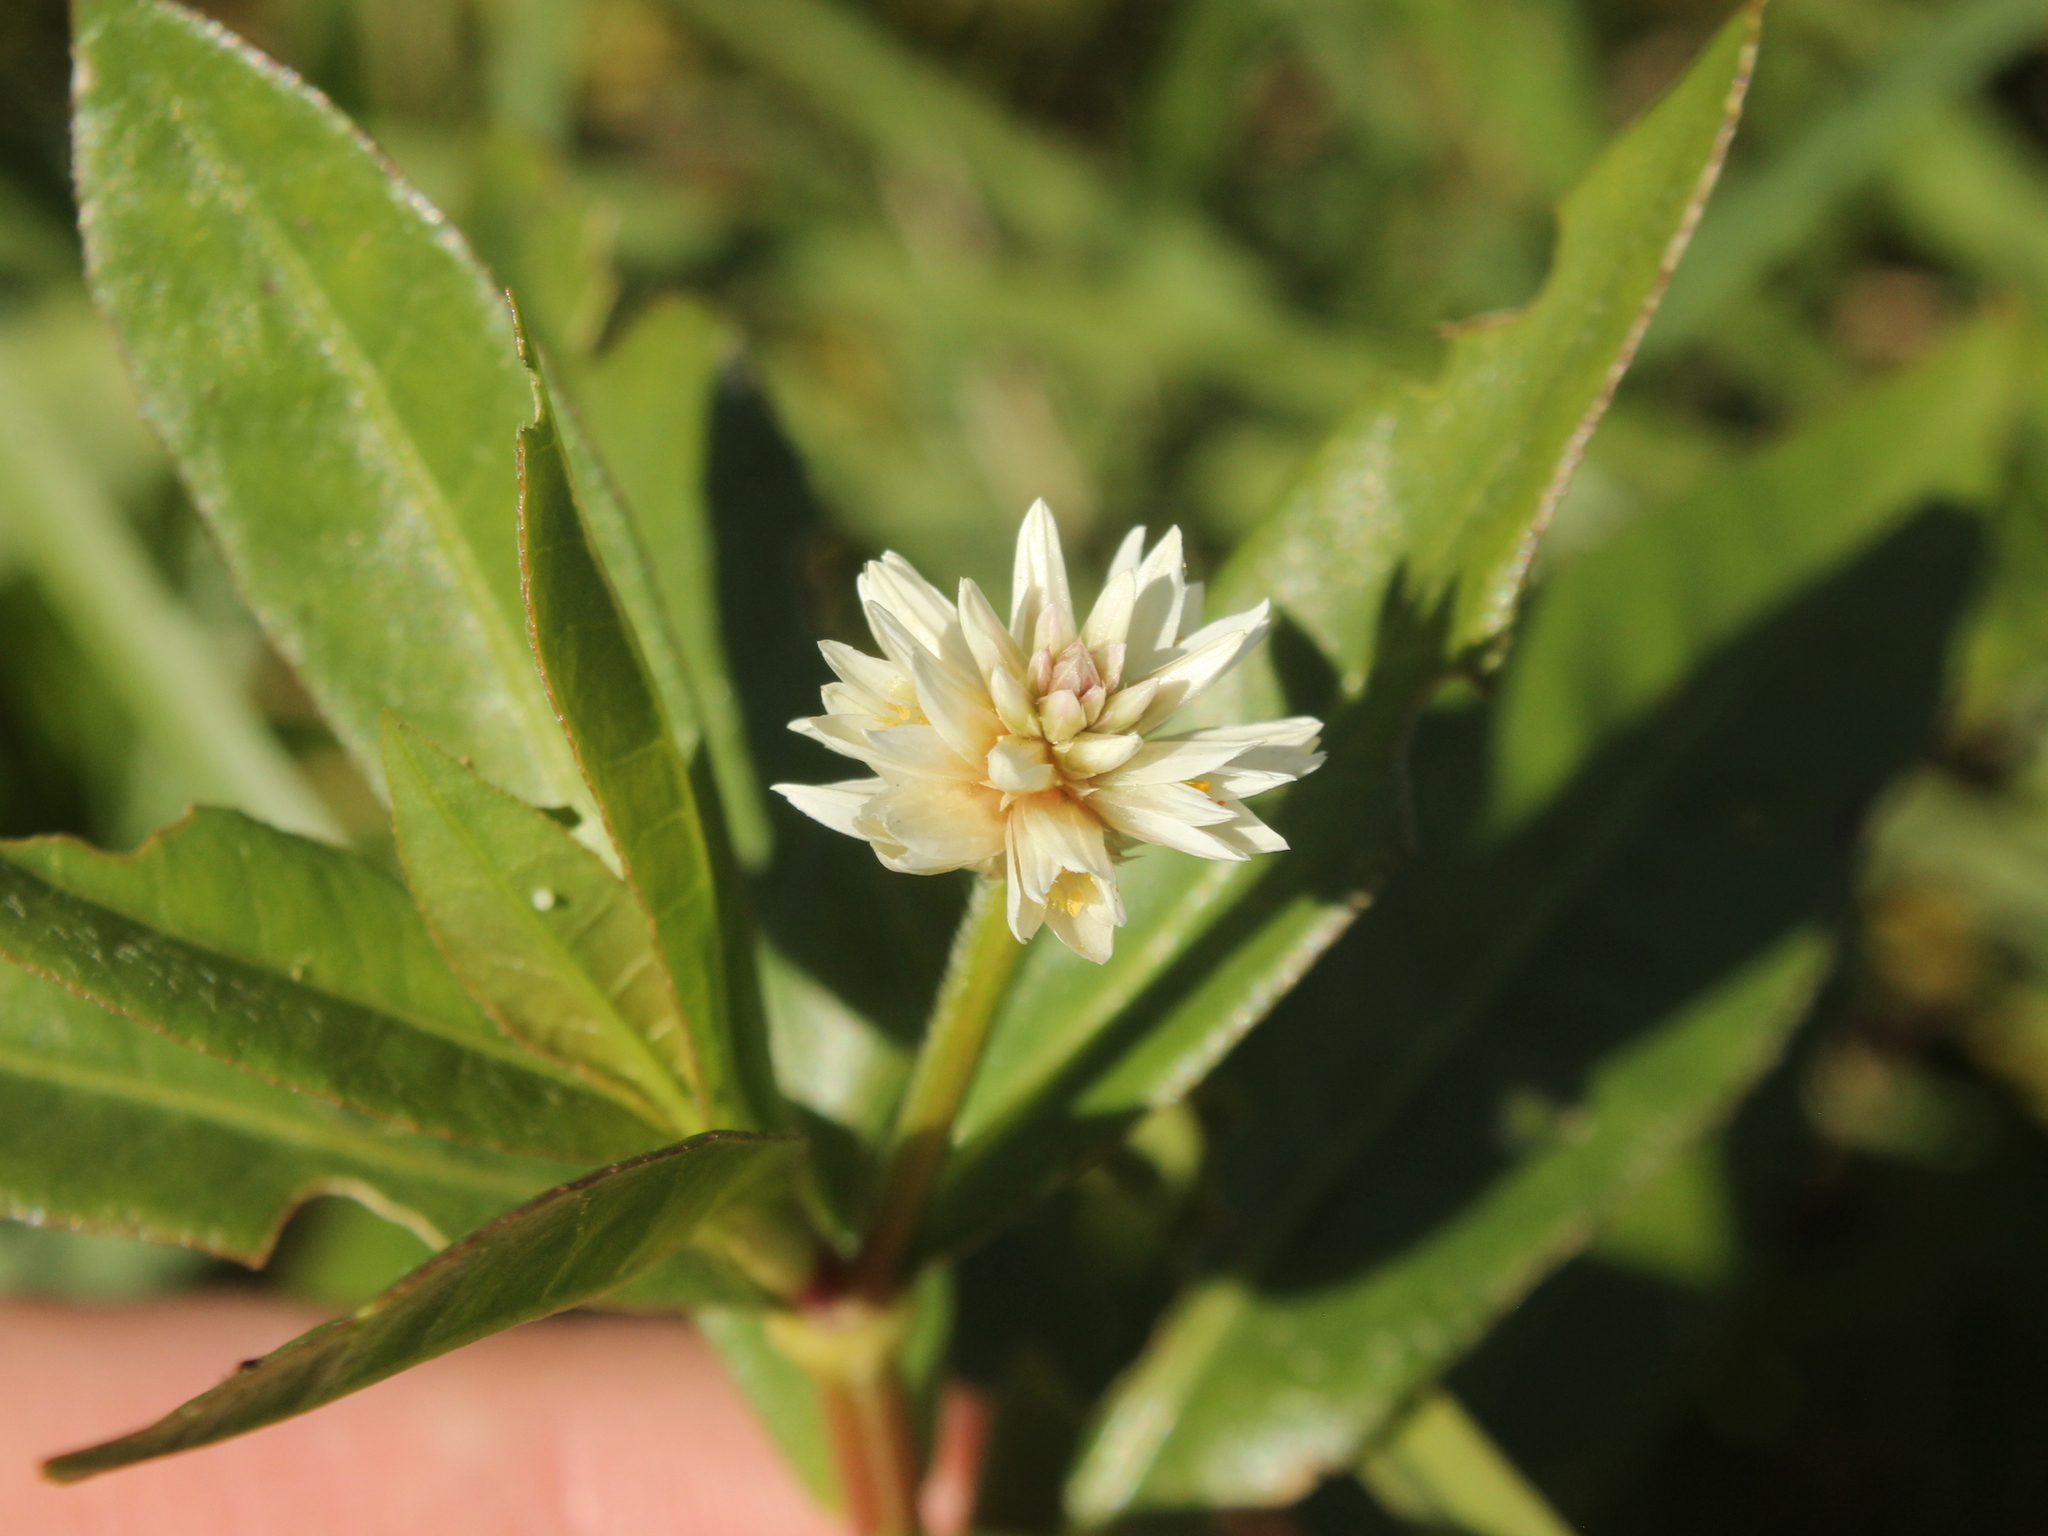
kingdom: Plantae
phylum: Tracheophyta
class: Magnoliopsida
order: Caryophyllales
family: Amaranthaceae
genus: Alternanthera
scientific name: Alternanthera philoxeroides
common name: Alligatorweed
